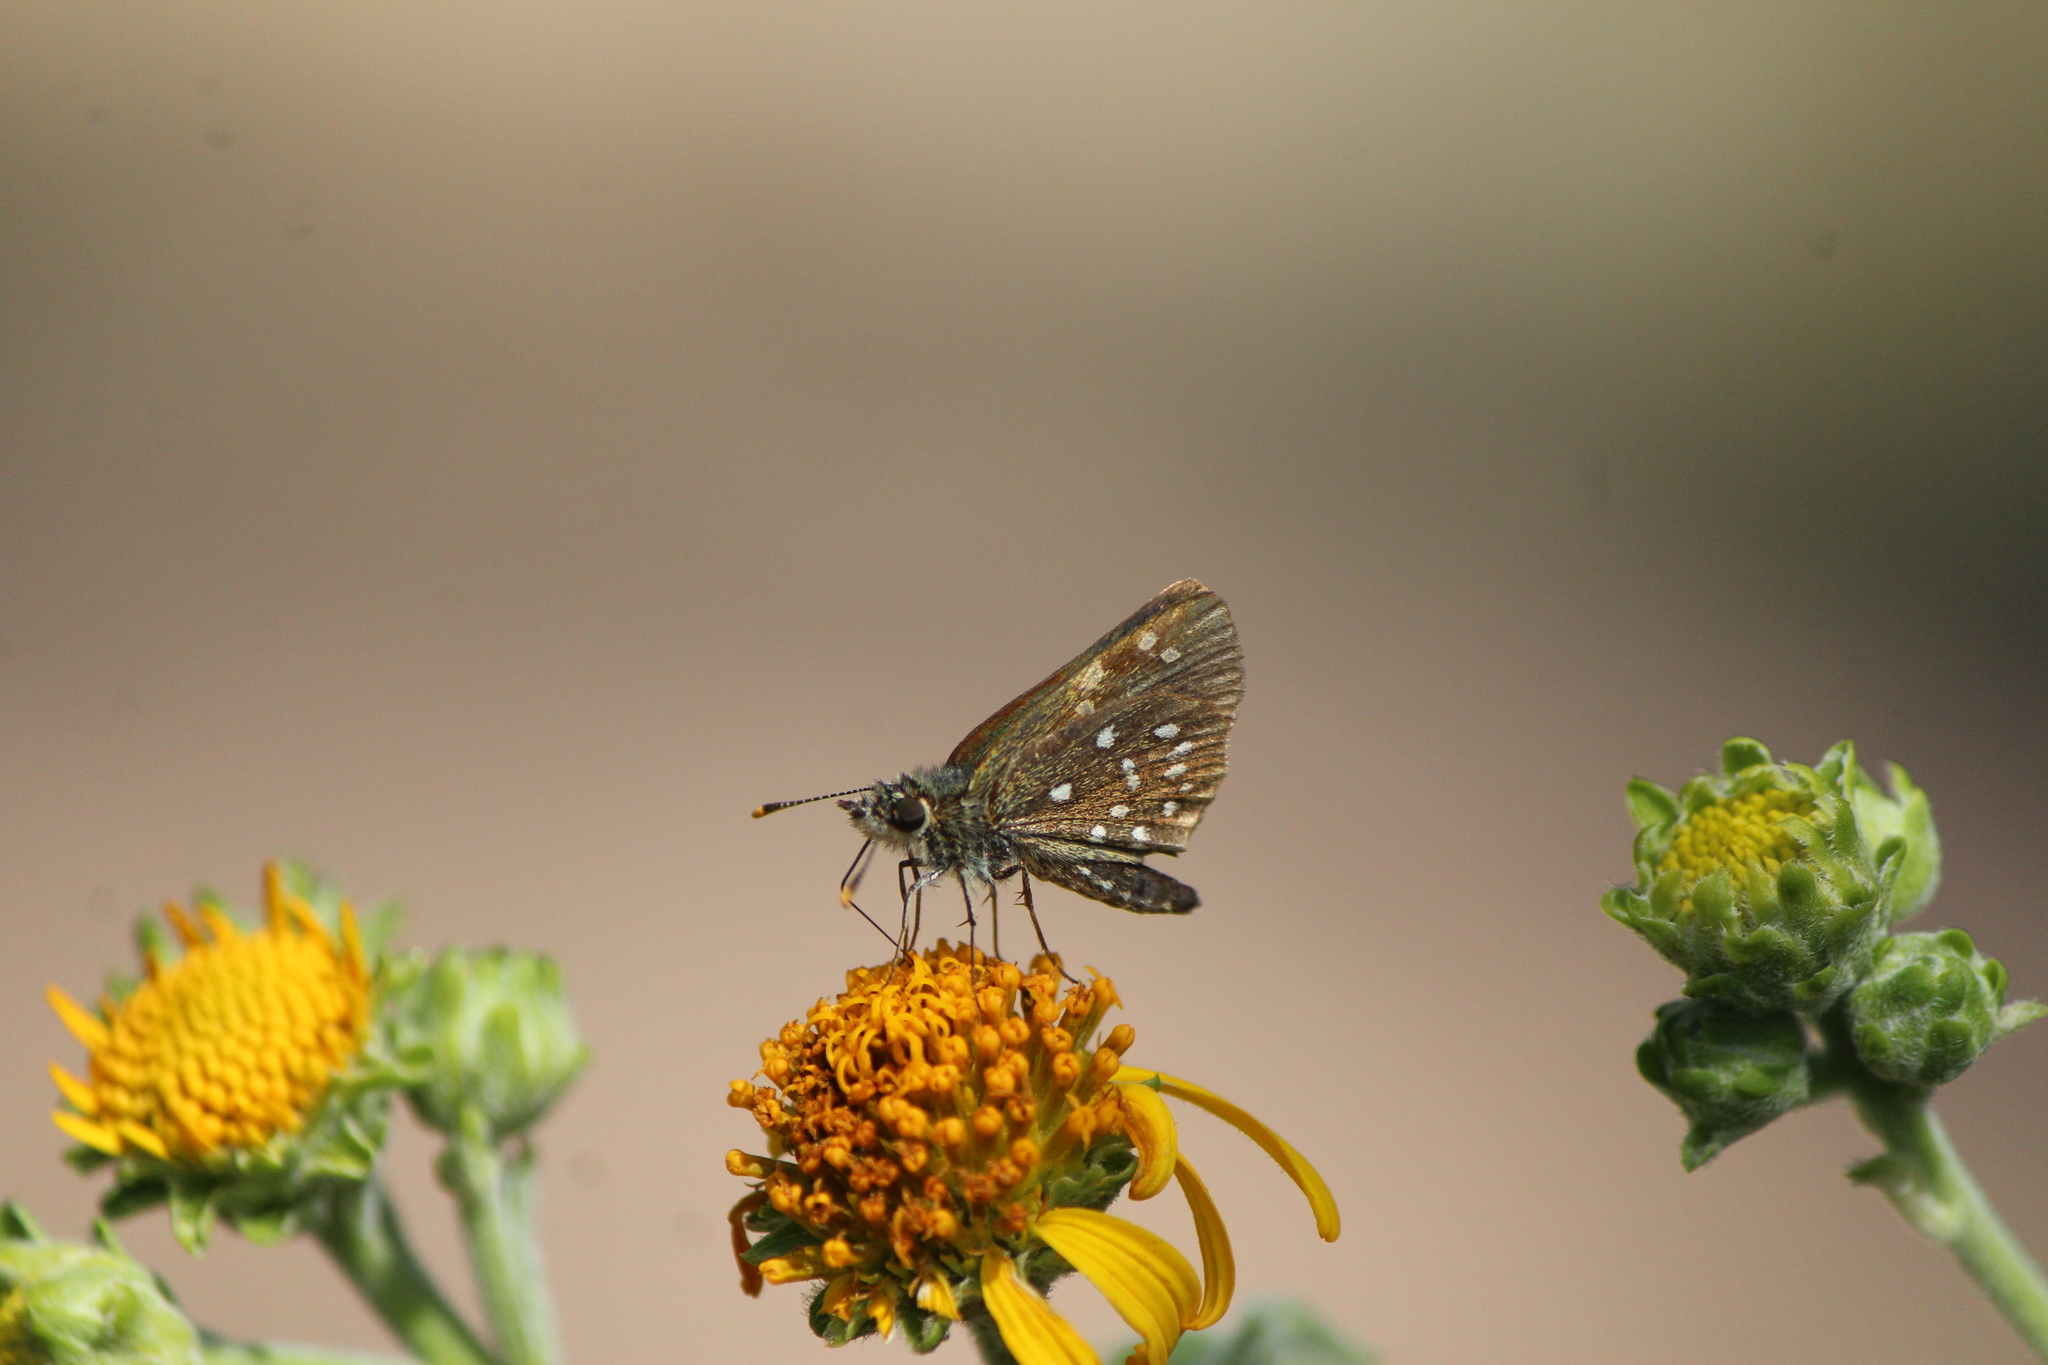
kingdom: Animalia
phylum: Arthropoda
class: Insecta
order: Lepidoptera
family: Hesperiidae
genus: Piruna
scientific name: Piruna aea
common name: Many-spotted skipperling
